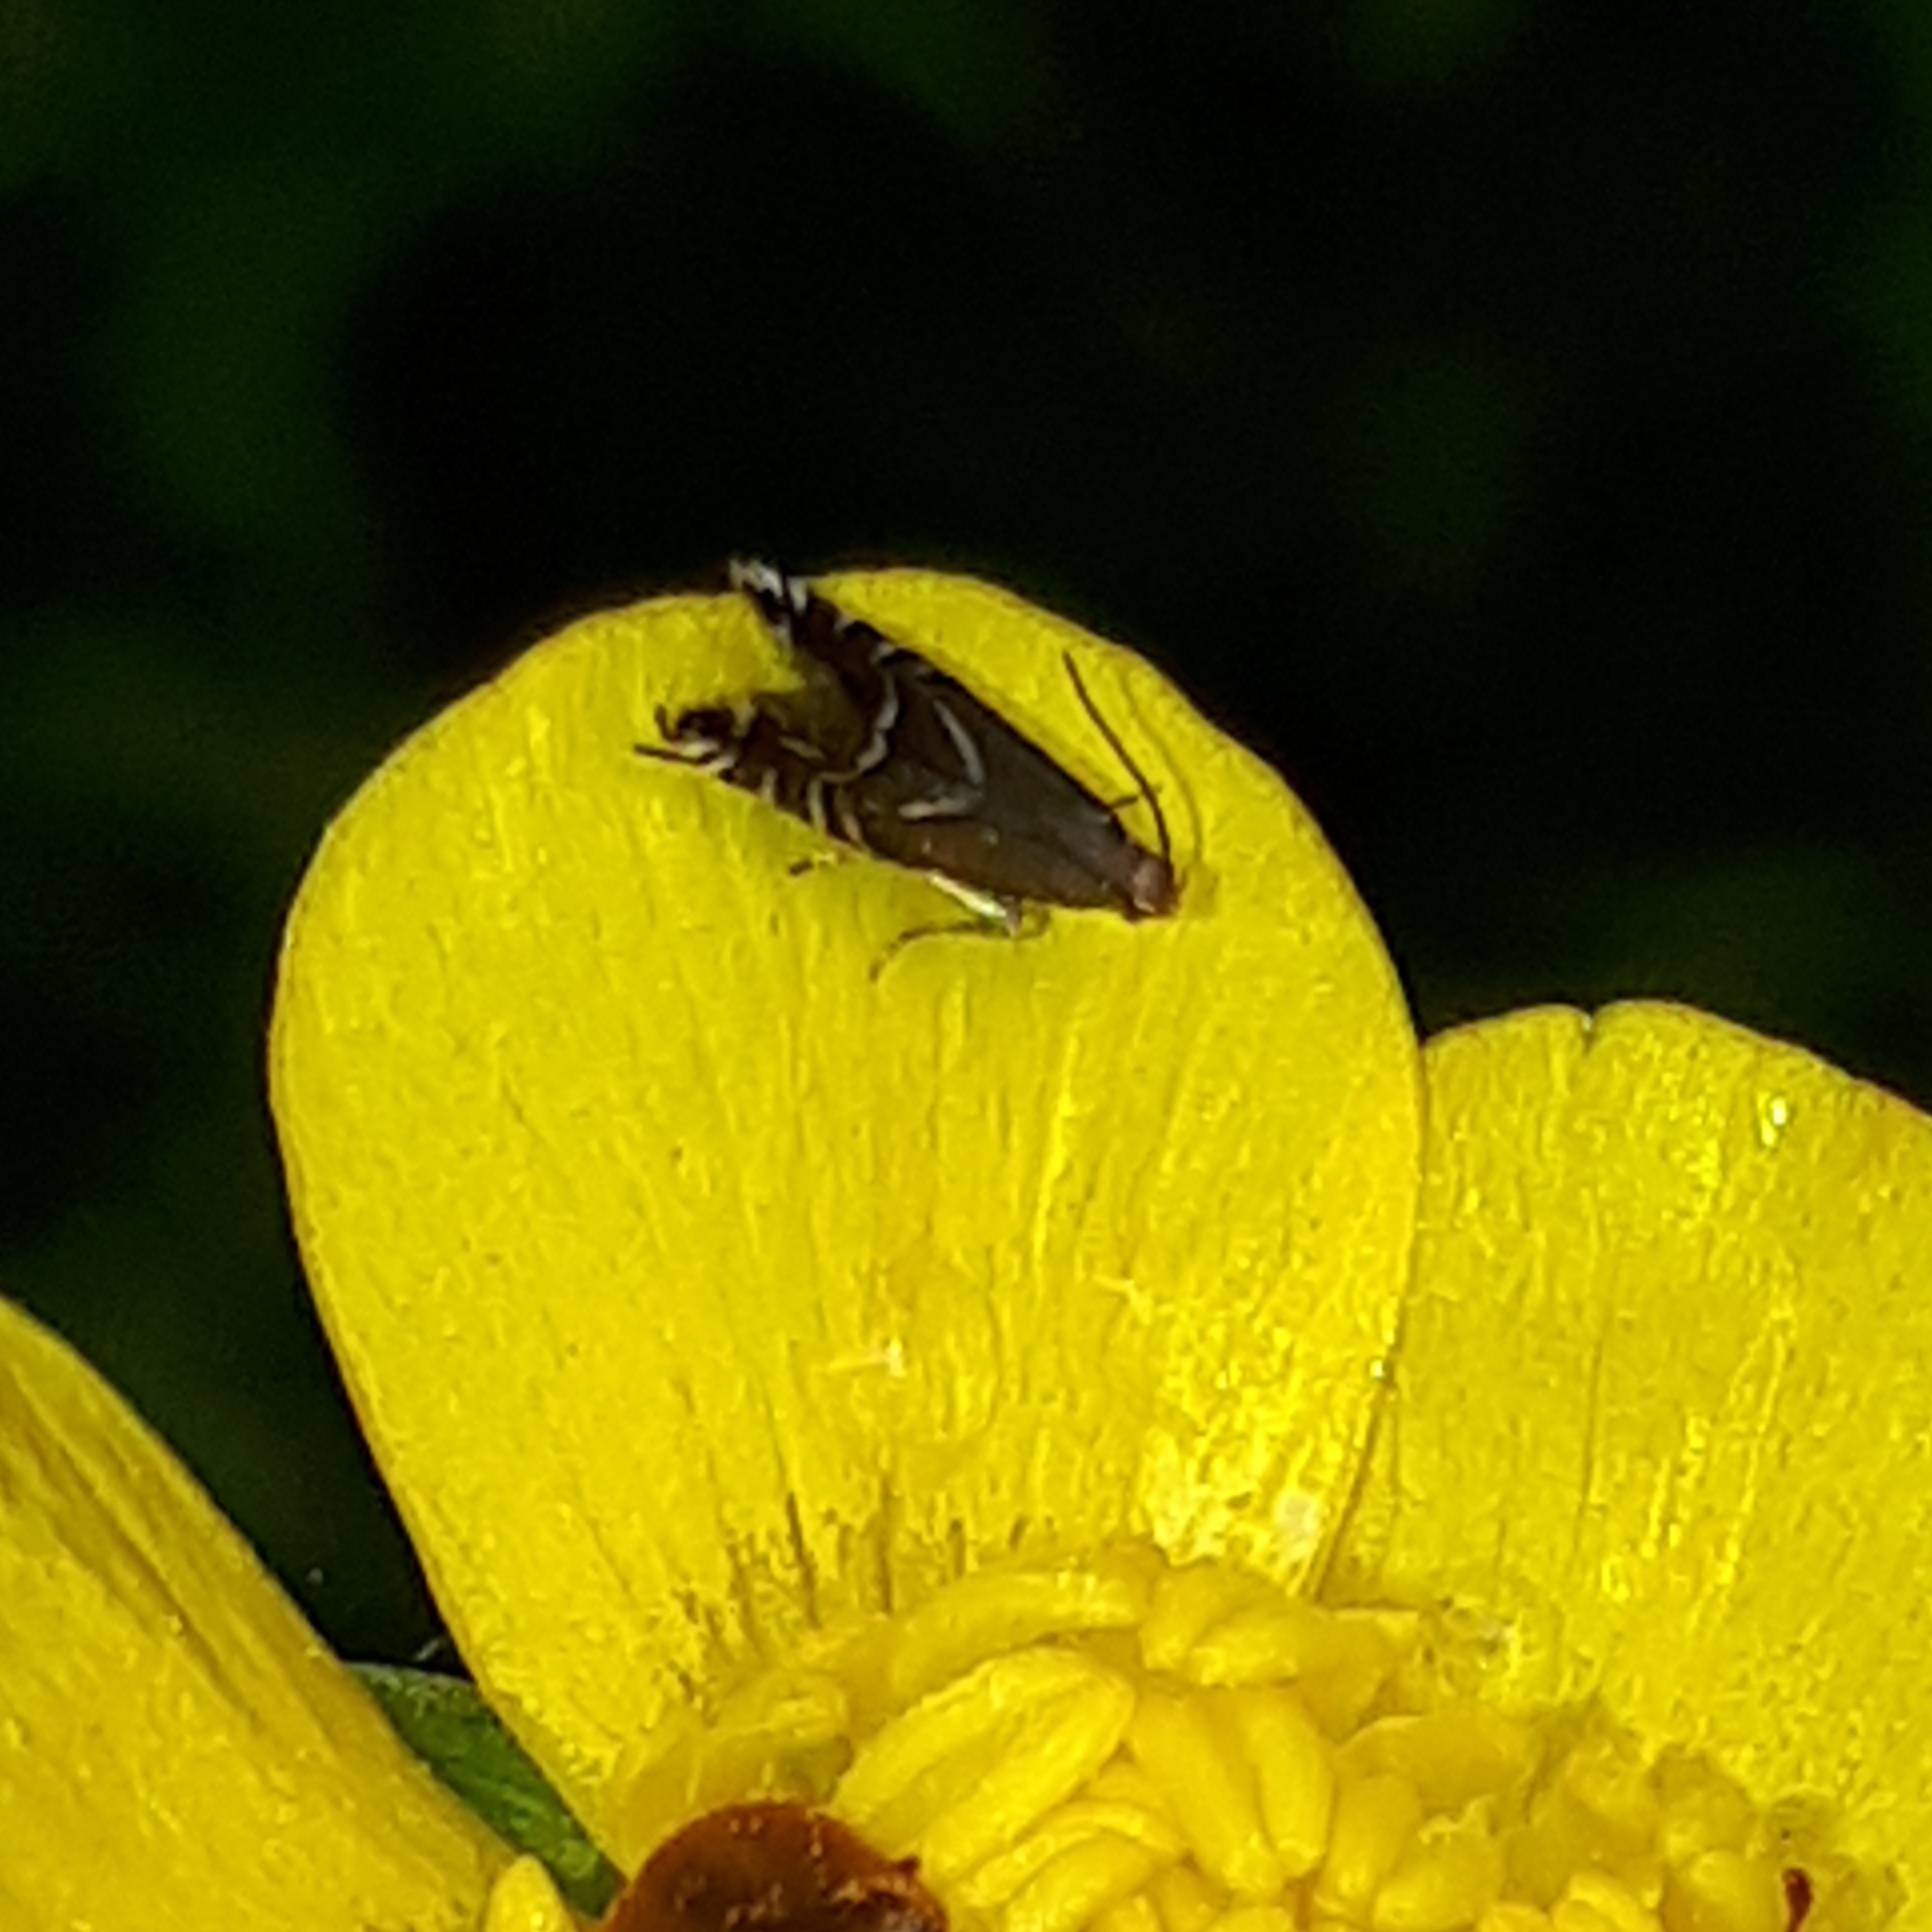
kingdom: Animalia
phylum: Arthropoda
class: Insecta
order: Lepidoptera
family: Glyphipterigidae
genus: Glyphipterix
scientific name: Glyphipterix simpliciella
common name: Cocksfoot moth
